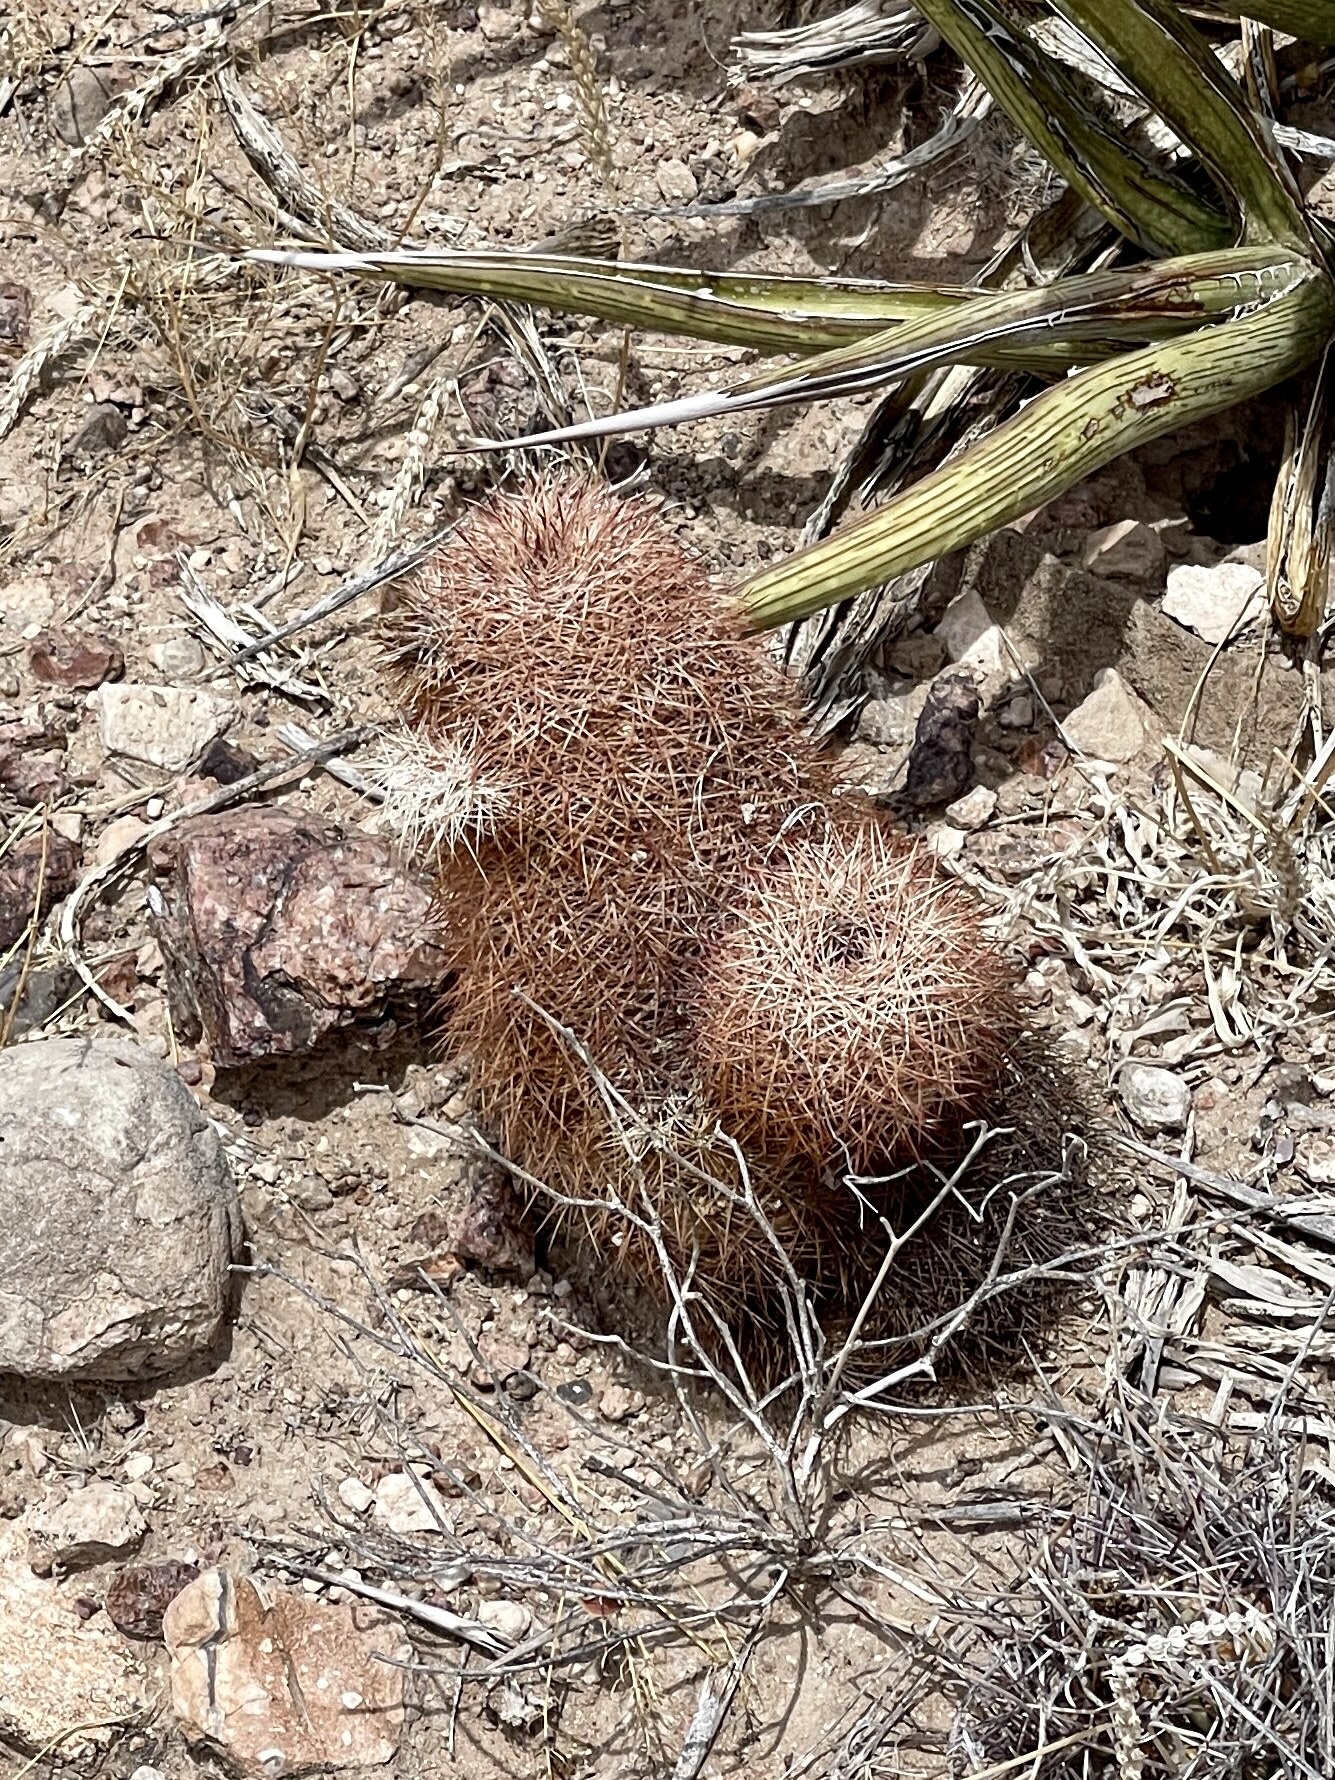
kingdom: Plantae
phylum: Tracheophyta
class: Magnoliopsida
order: Caryophyllales
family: Cactaceae
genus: Echinocereus
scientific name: Echinocereus dasyacanthus
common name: Spiny hedgehog cactus
